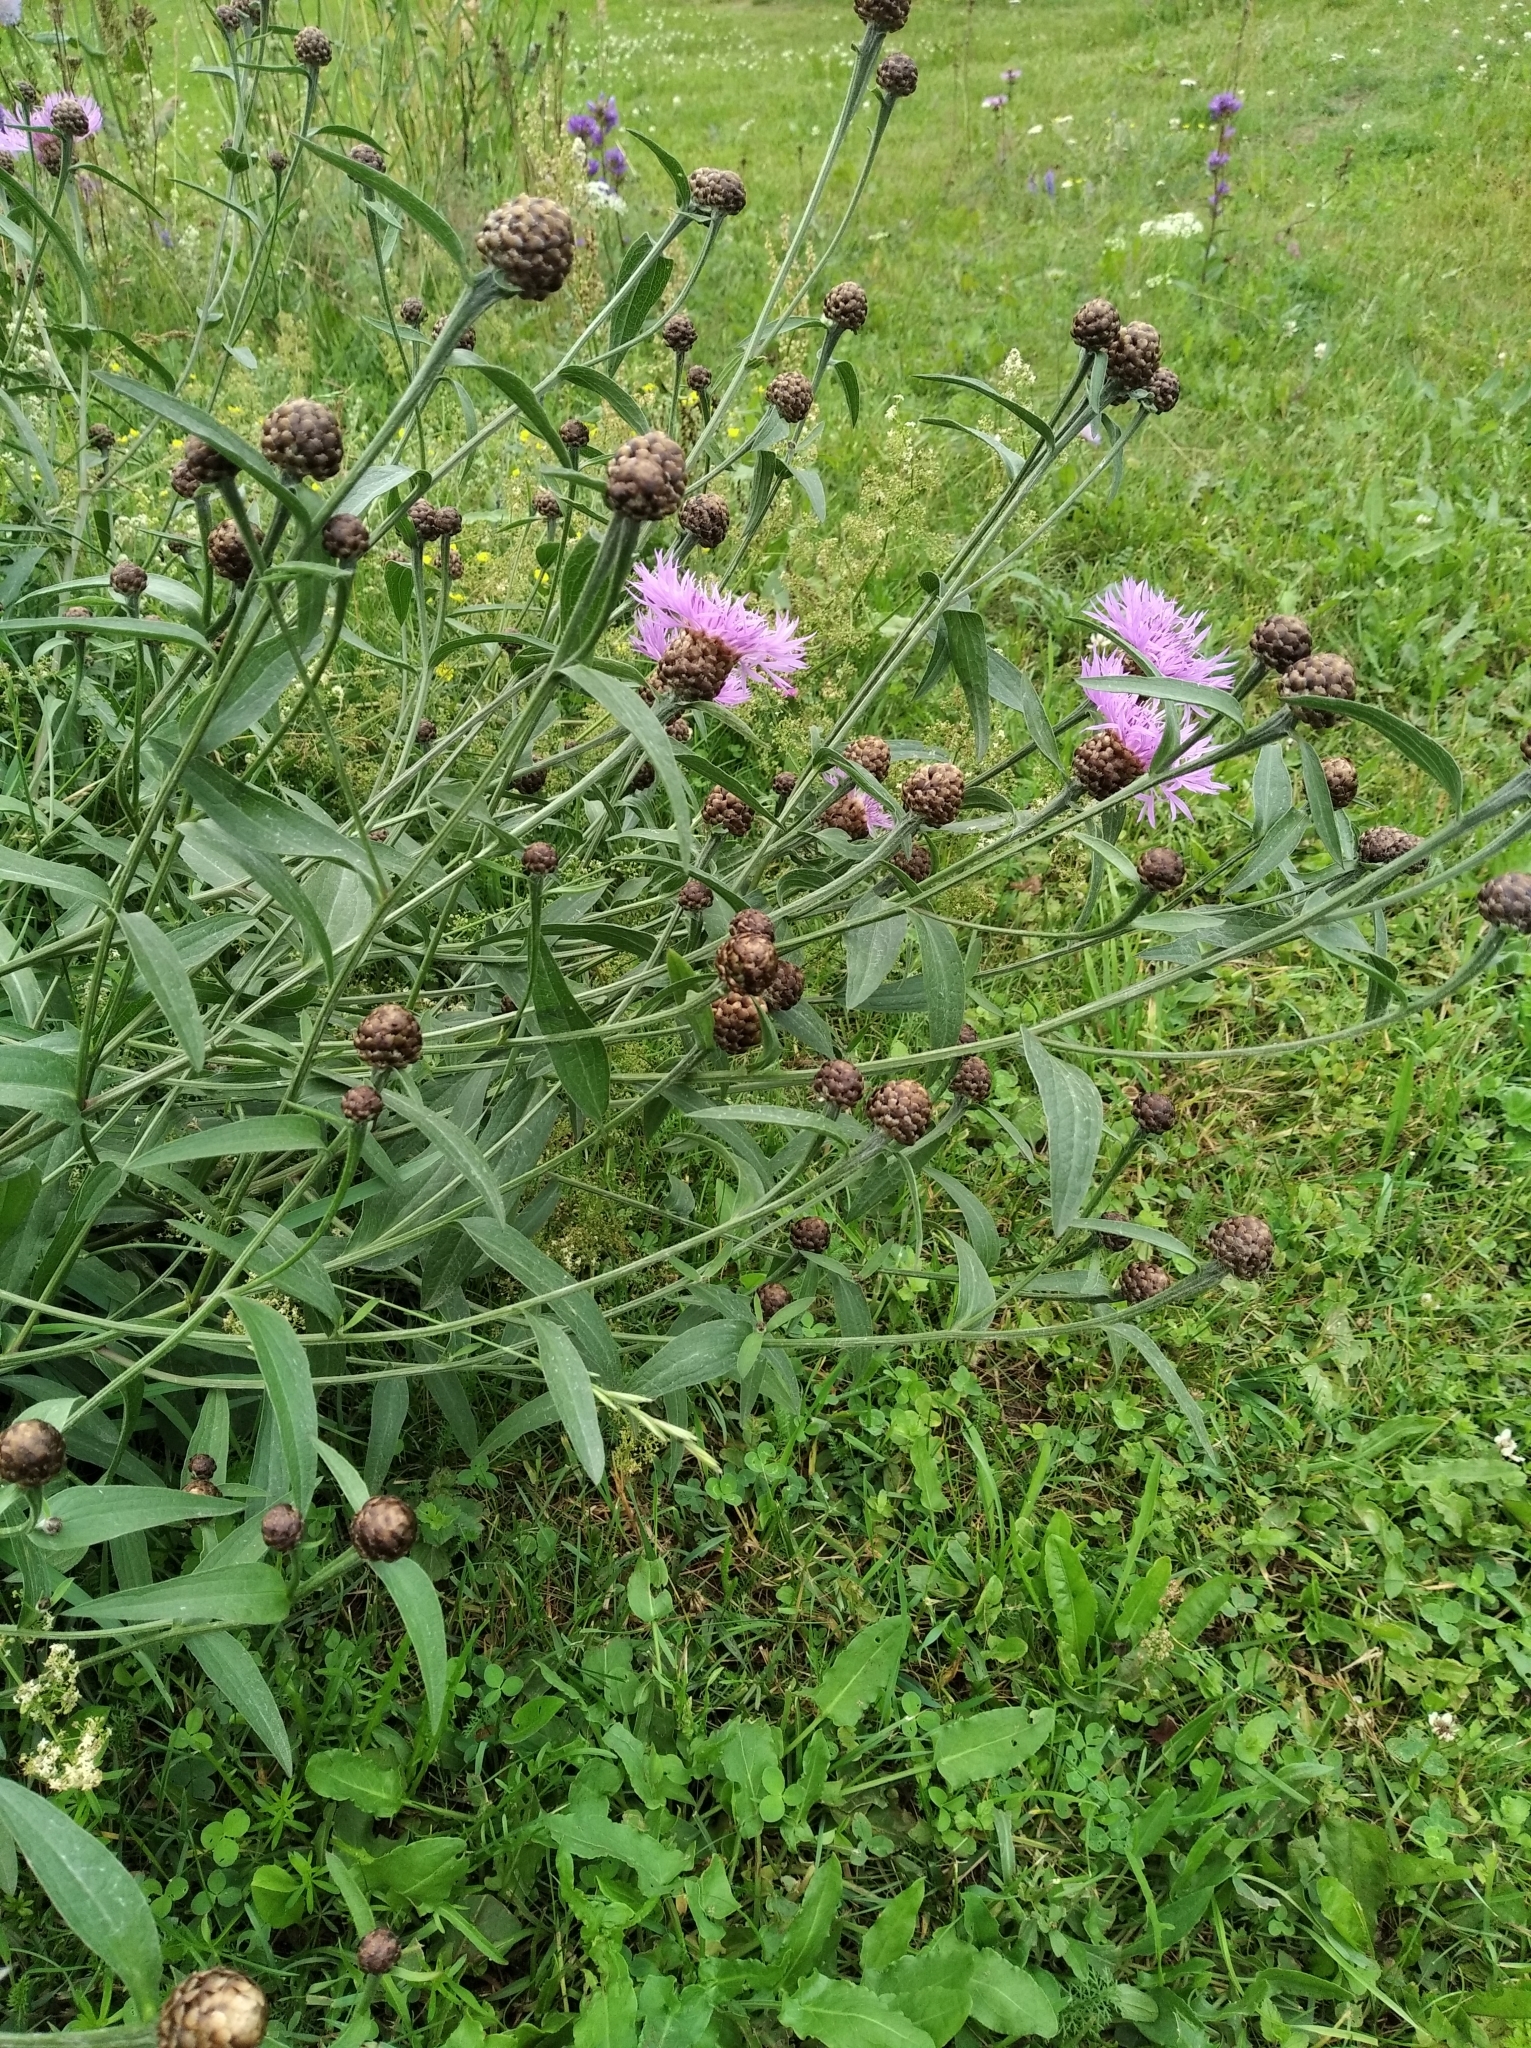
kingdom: Plantae
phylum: Tracheophyta
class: Magnoliopsida
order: Asterales
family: Asteraceae
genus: Centaurea
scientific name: Centaurea jacea
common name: Brown knapweed
